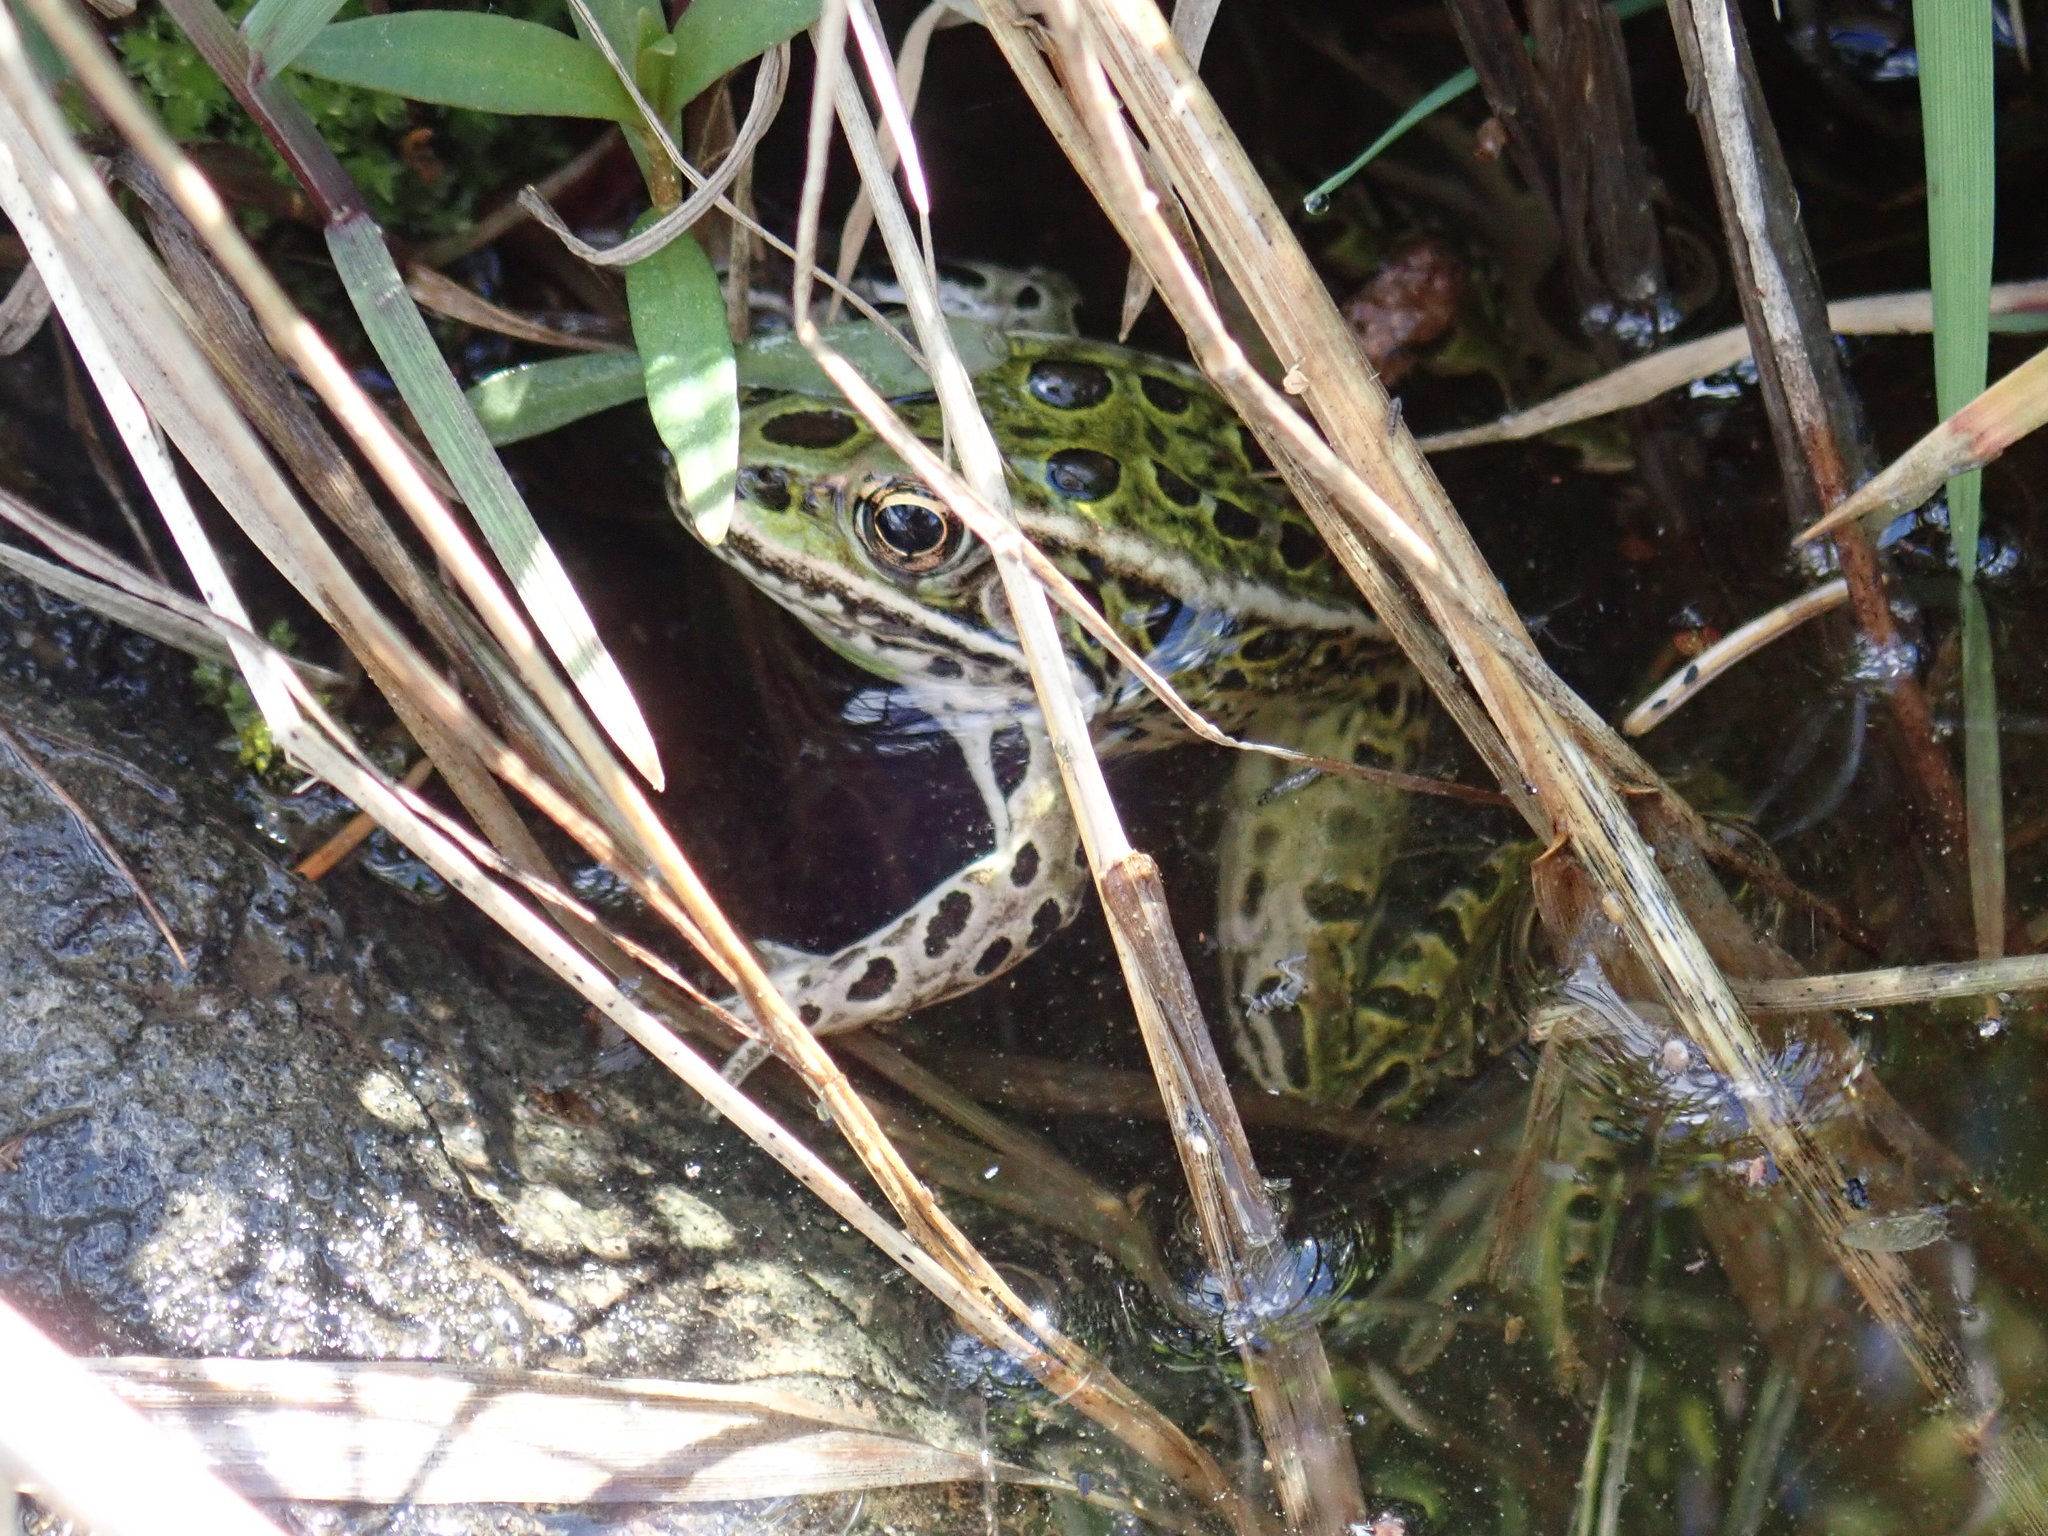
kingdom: Animalia
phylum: Chordata
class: Amphibia
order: Anura
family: Ranidae
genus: Lithobates
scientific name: Lithobates pipiens
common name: Northern leopard frog
